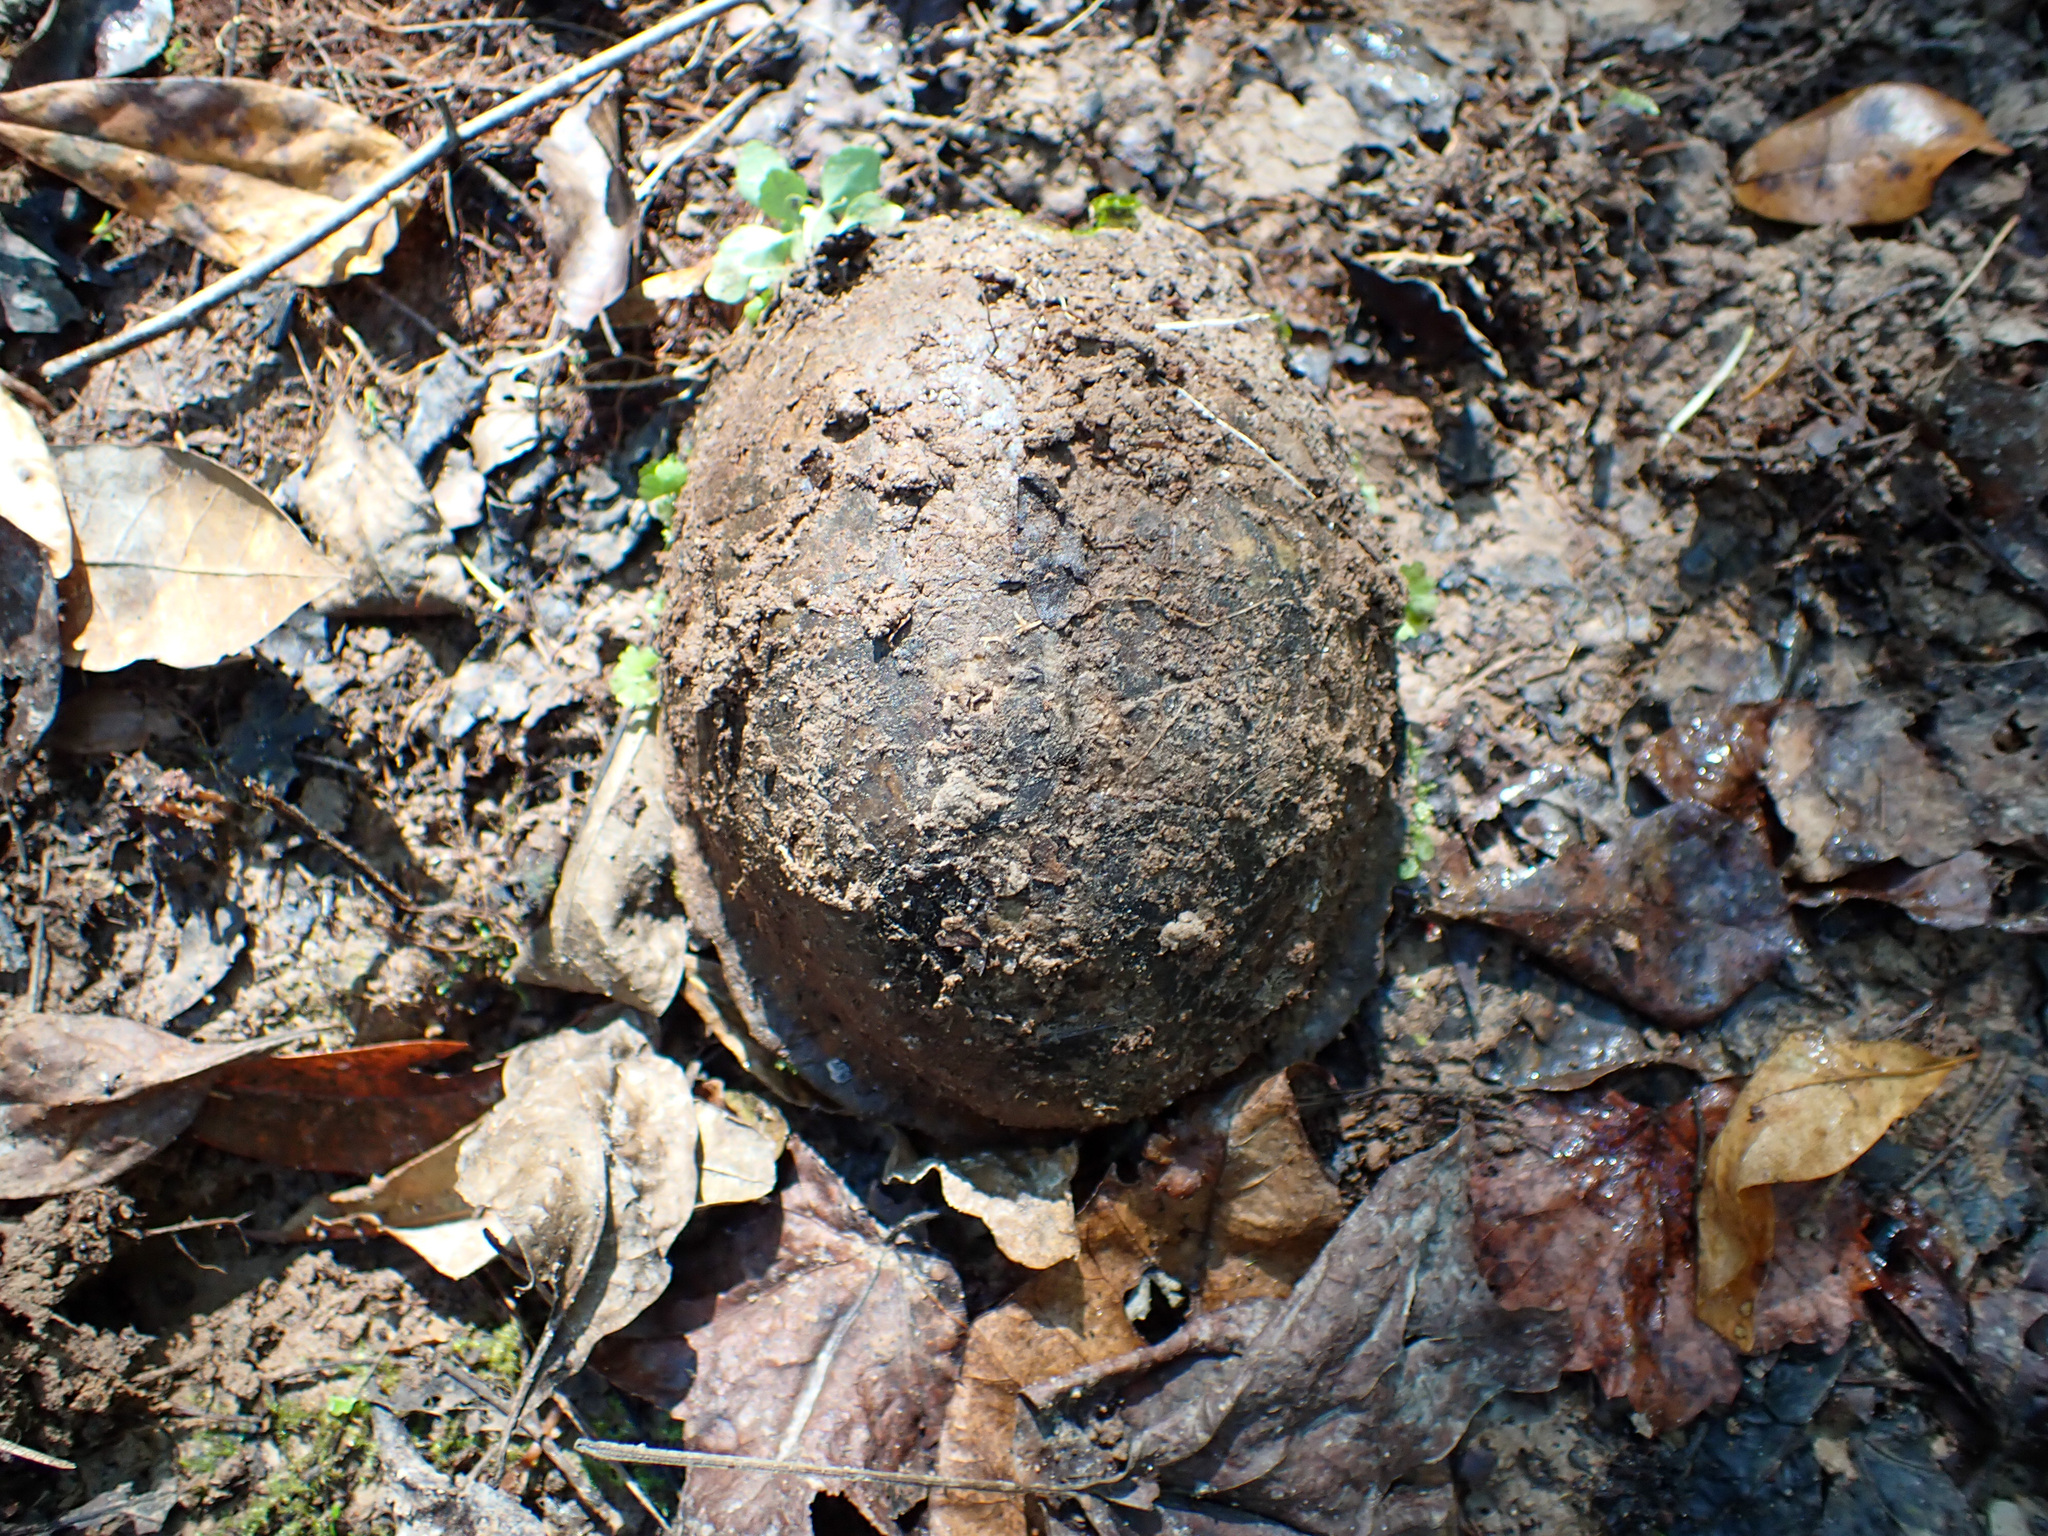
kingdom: Animalia
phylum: Chordata
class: Testudines
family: Emydidae
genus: Terrapene
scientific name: Terrapene carolina
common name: Common box turtle
